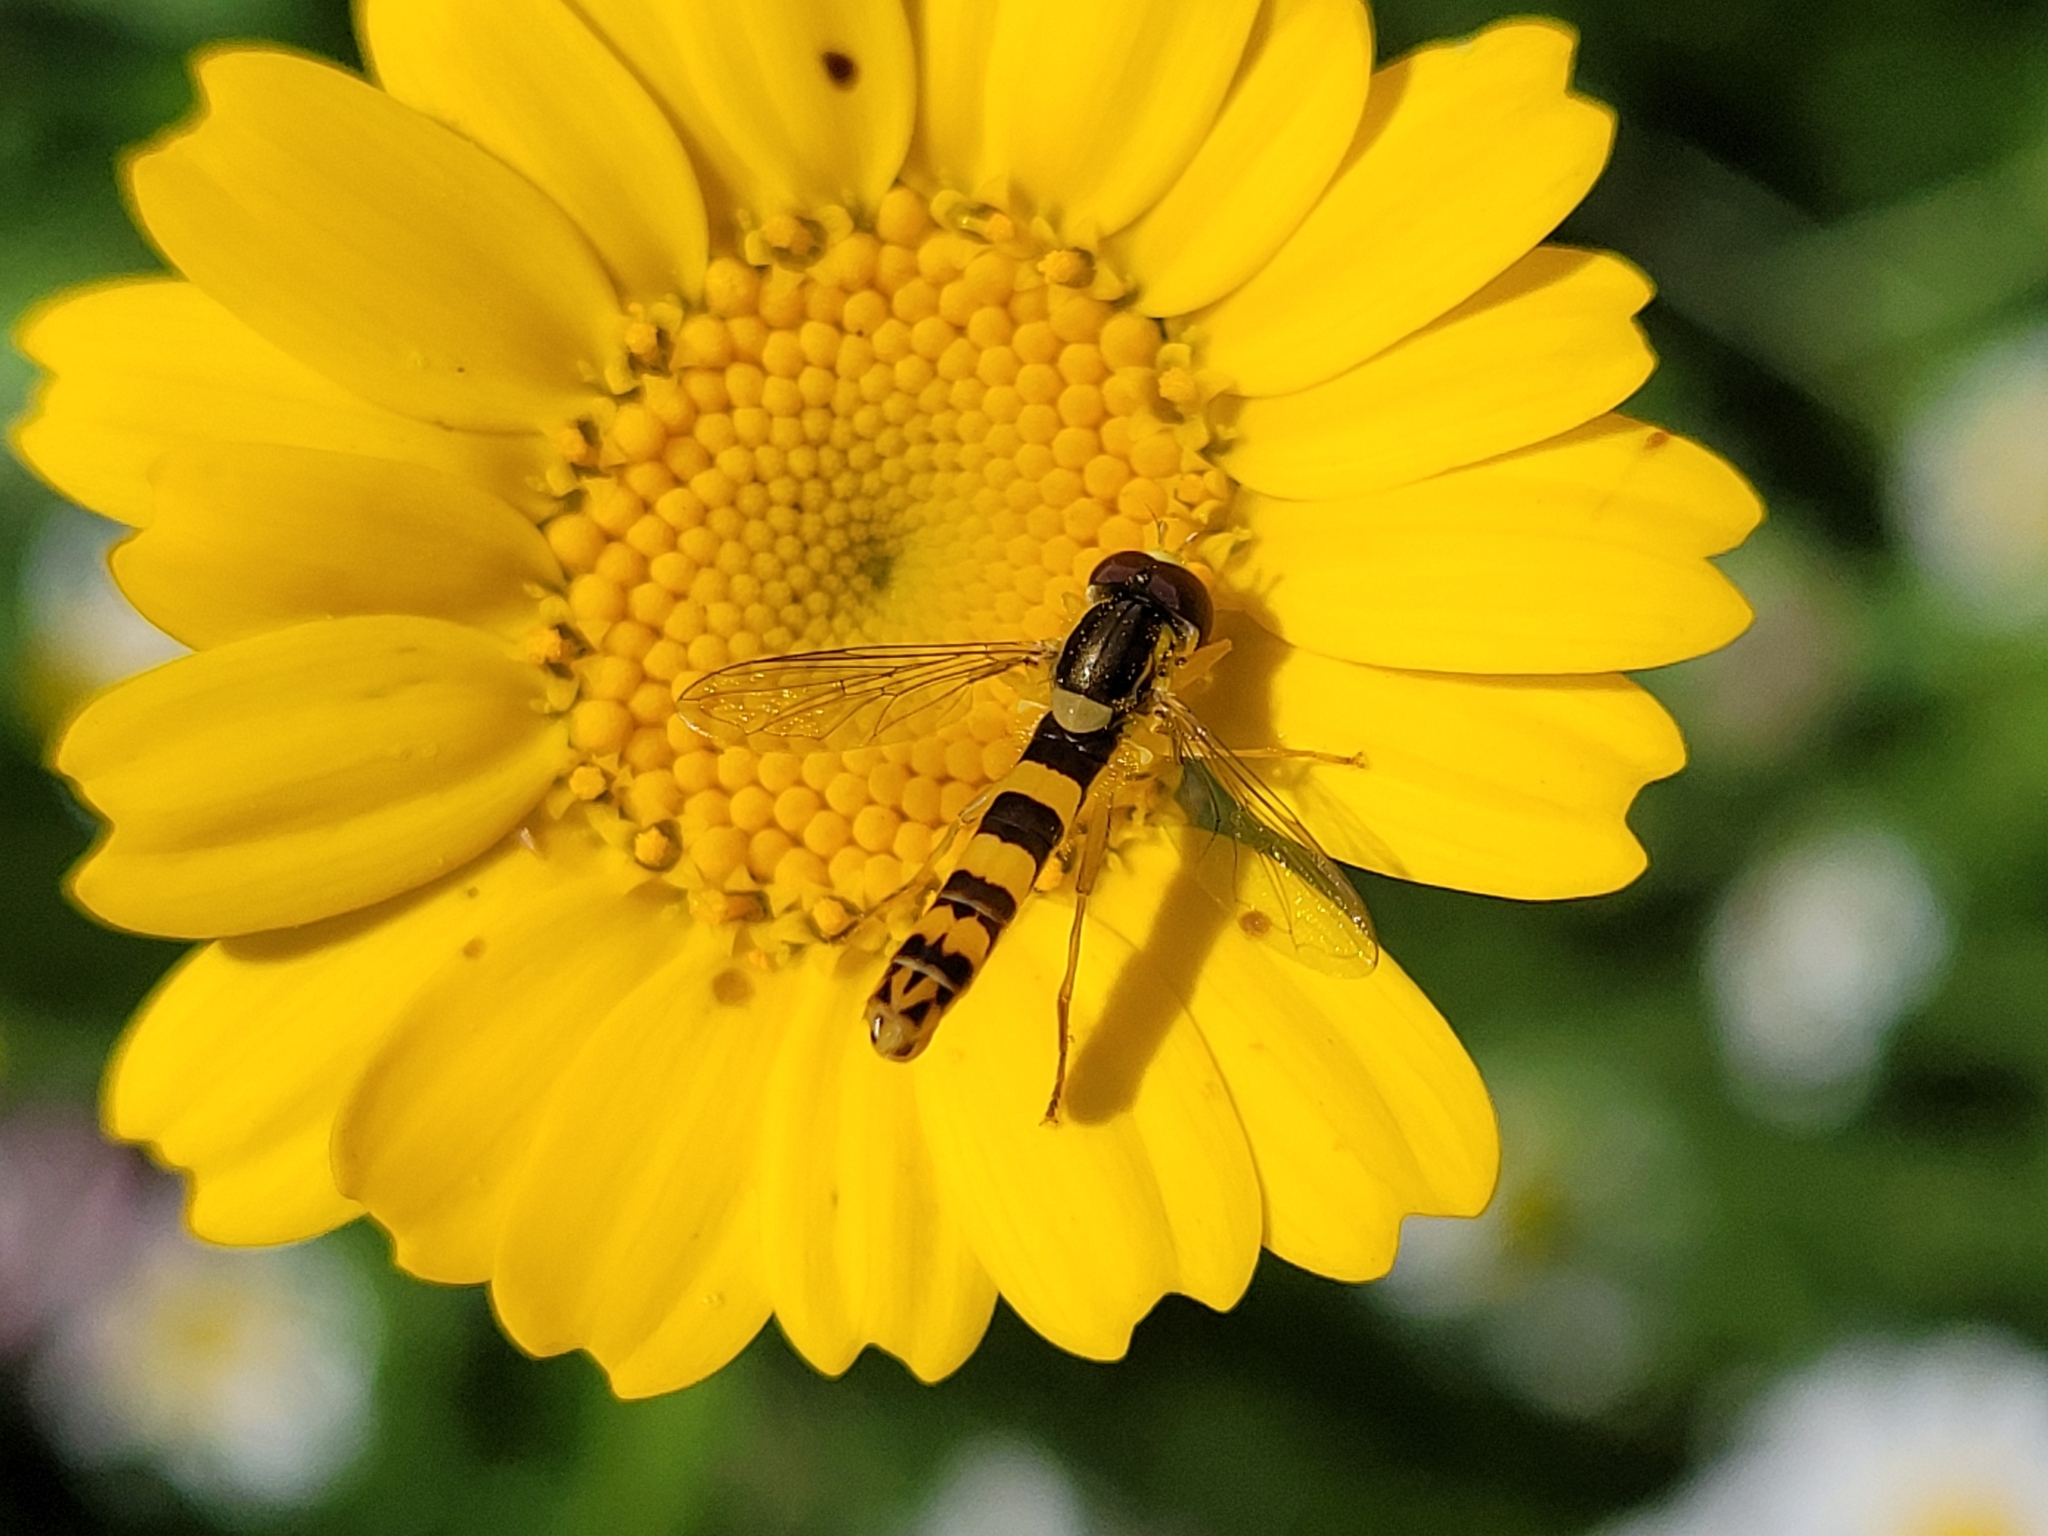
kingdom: Animalia
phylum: Arthropoda
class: Insecta
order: Diptera
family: Syrphidae
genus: Sphaerophoria
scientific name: Sphaerophoria scripta
